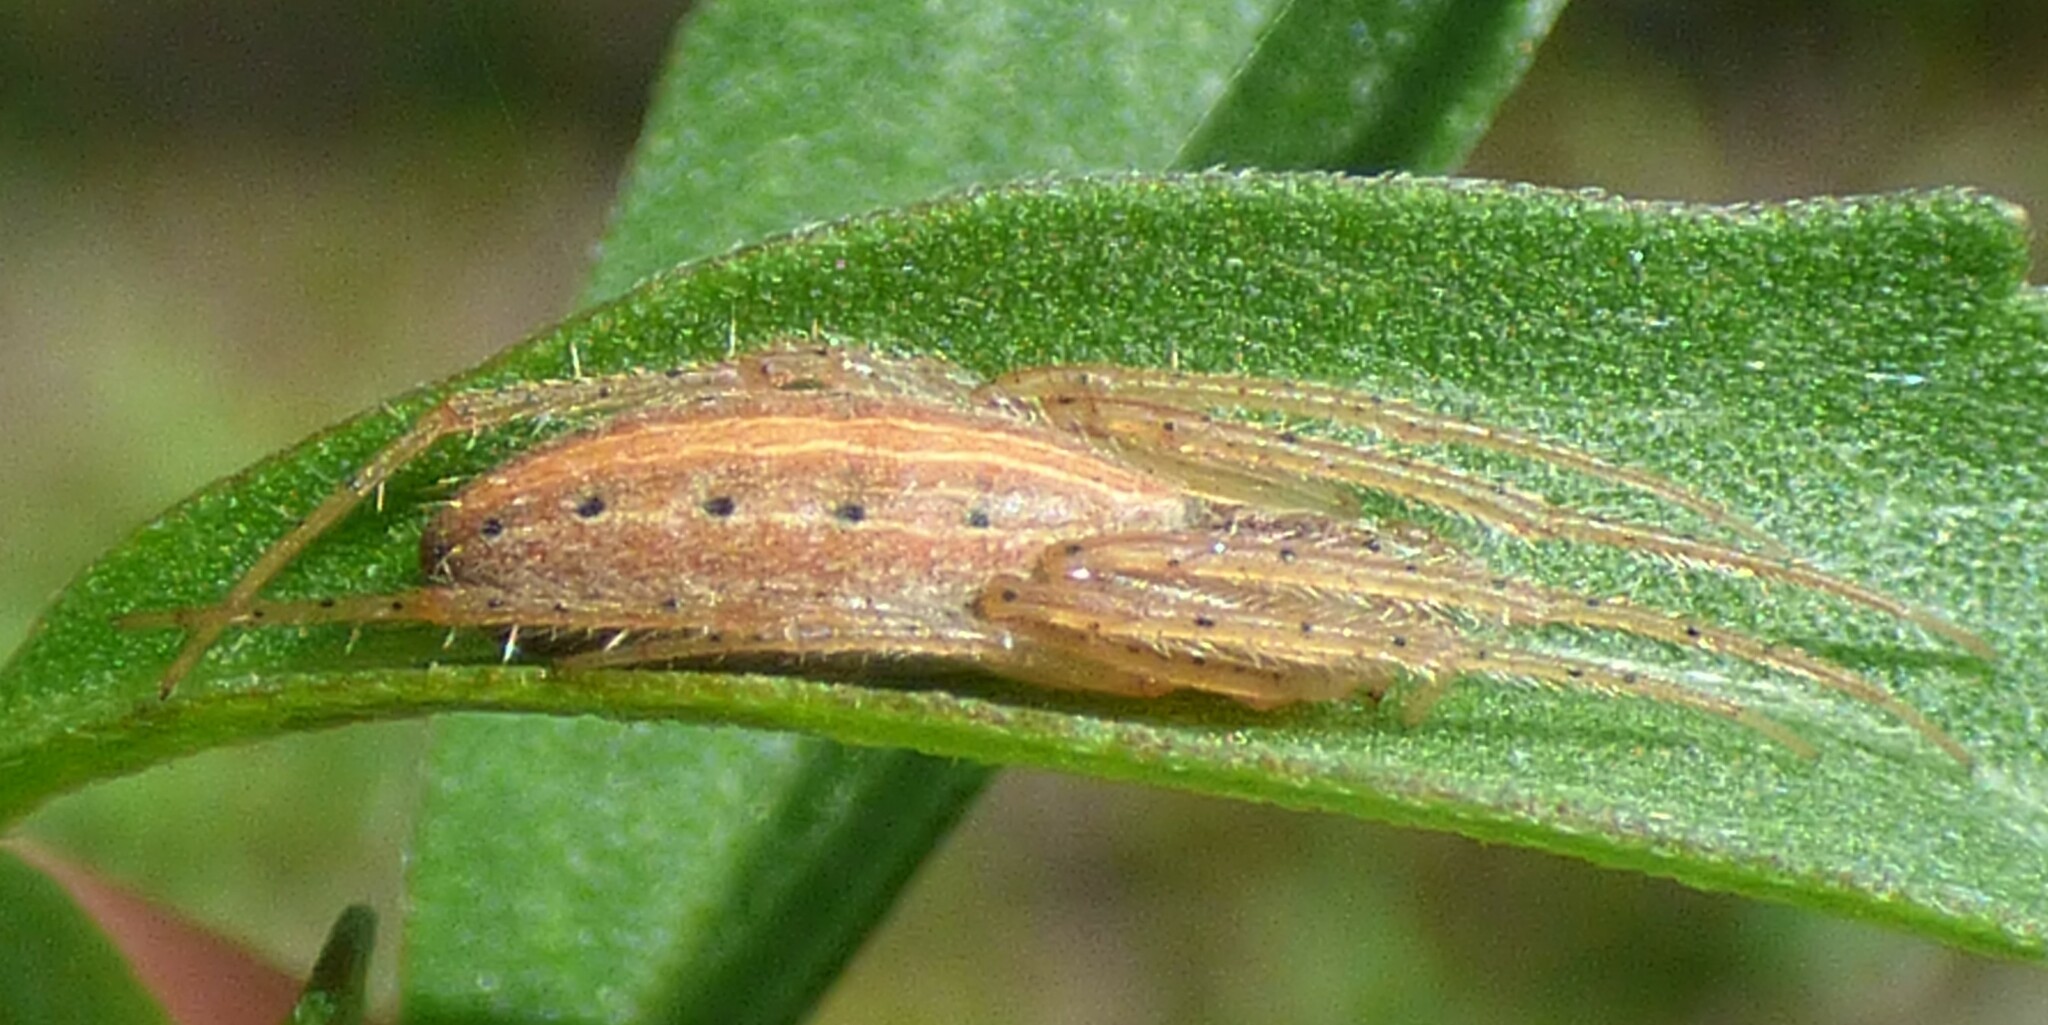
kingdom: Animalia
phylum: Arthropoda
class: Arachnida
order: Araneae
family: Araneidae
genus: Larinia
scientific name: Larinia directa
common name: Orb weavers
